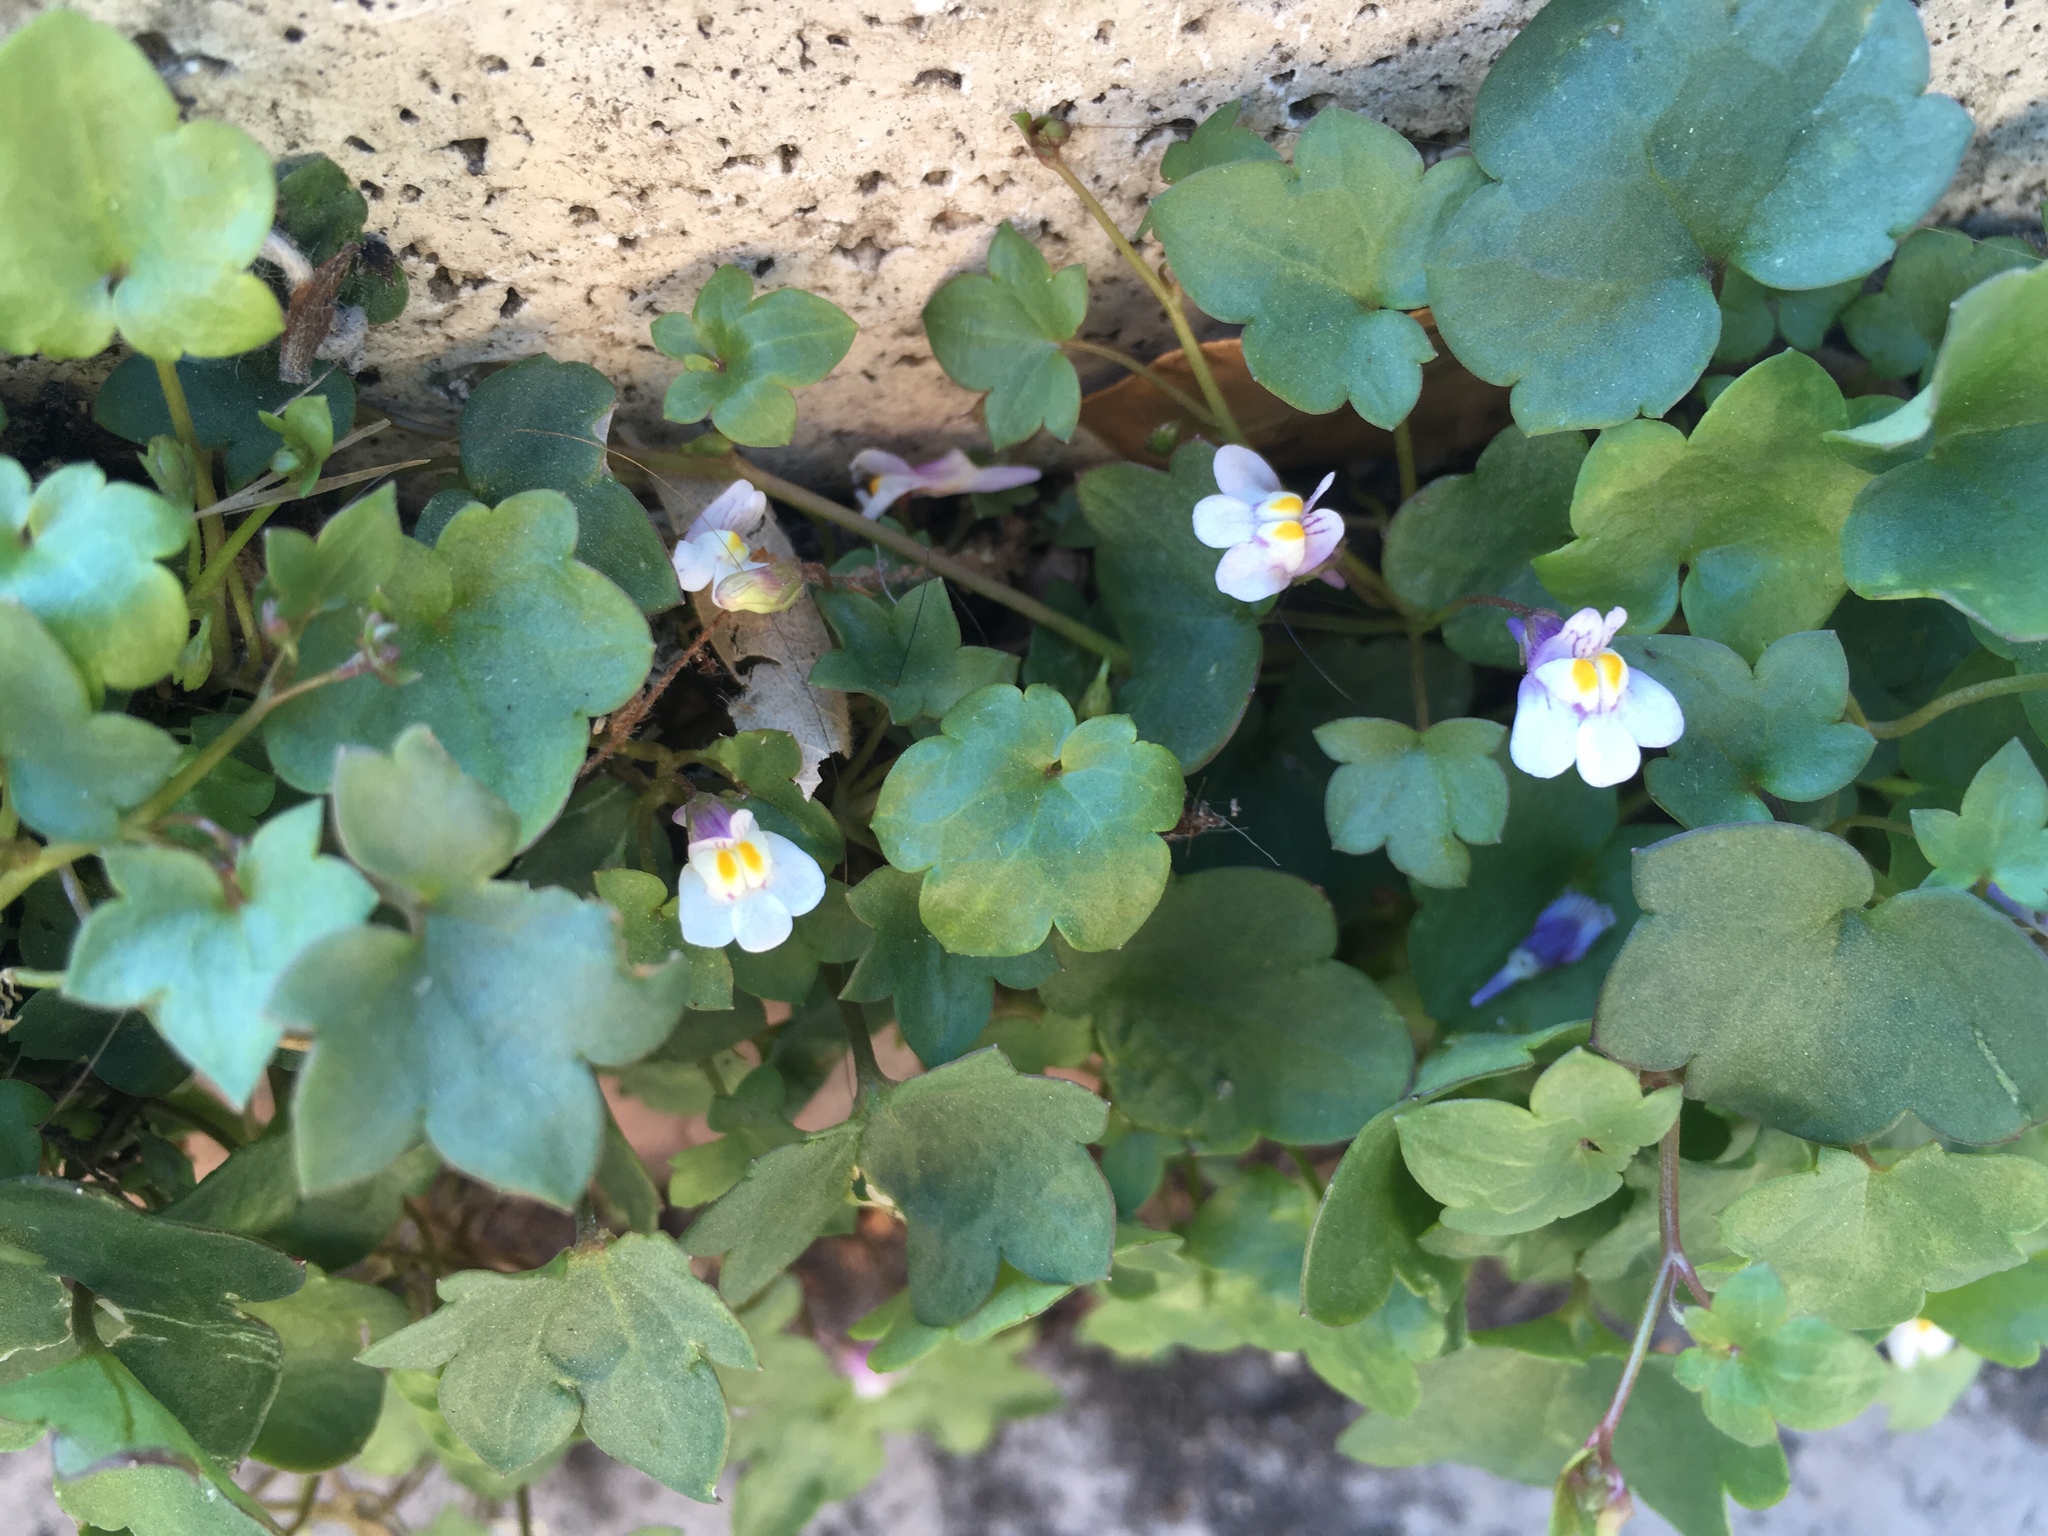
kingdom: Plantae
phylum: Tracheophyta
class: Magnoliopsida
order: Lamiales
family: Plantaginaceae
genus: Cymbalaria
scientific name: Cymbalaria muralis
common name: Ivy-leaved toadflax
